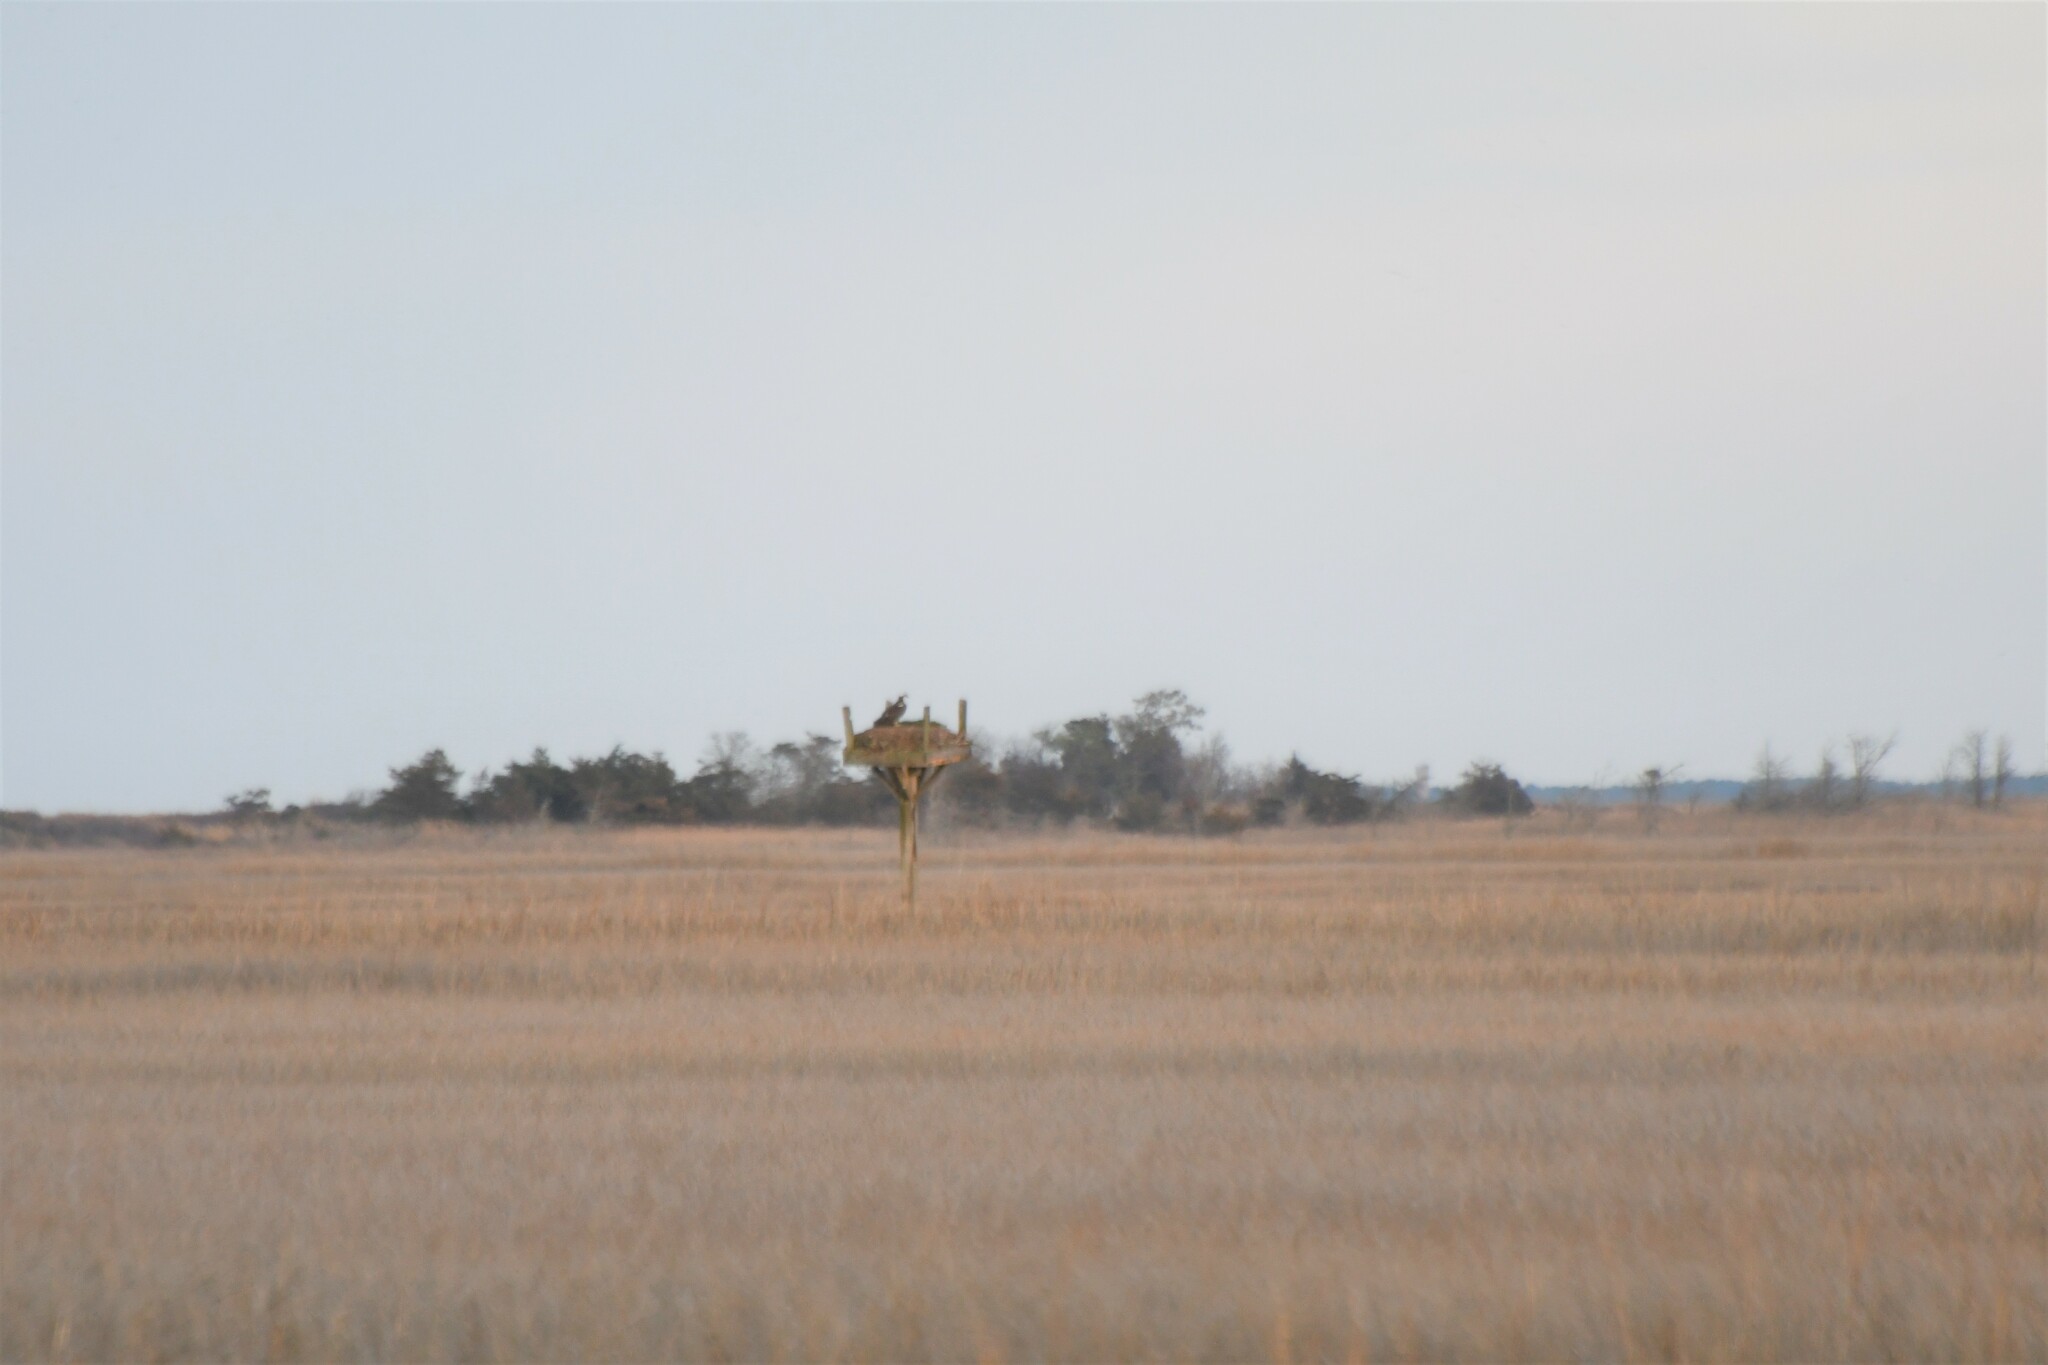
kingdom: Animalia
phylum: Chordata
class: Aves
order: Accipitriformes
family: Pandionidae
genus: Pandion
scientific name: Pandion haliaetus
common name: Osprey
